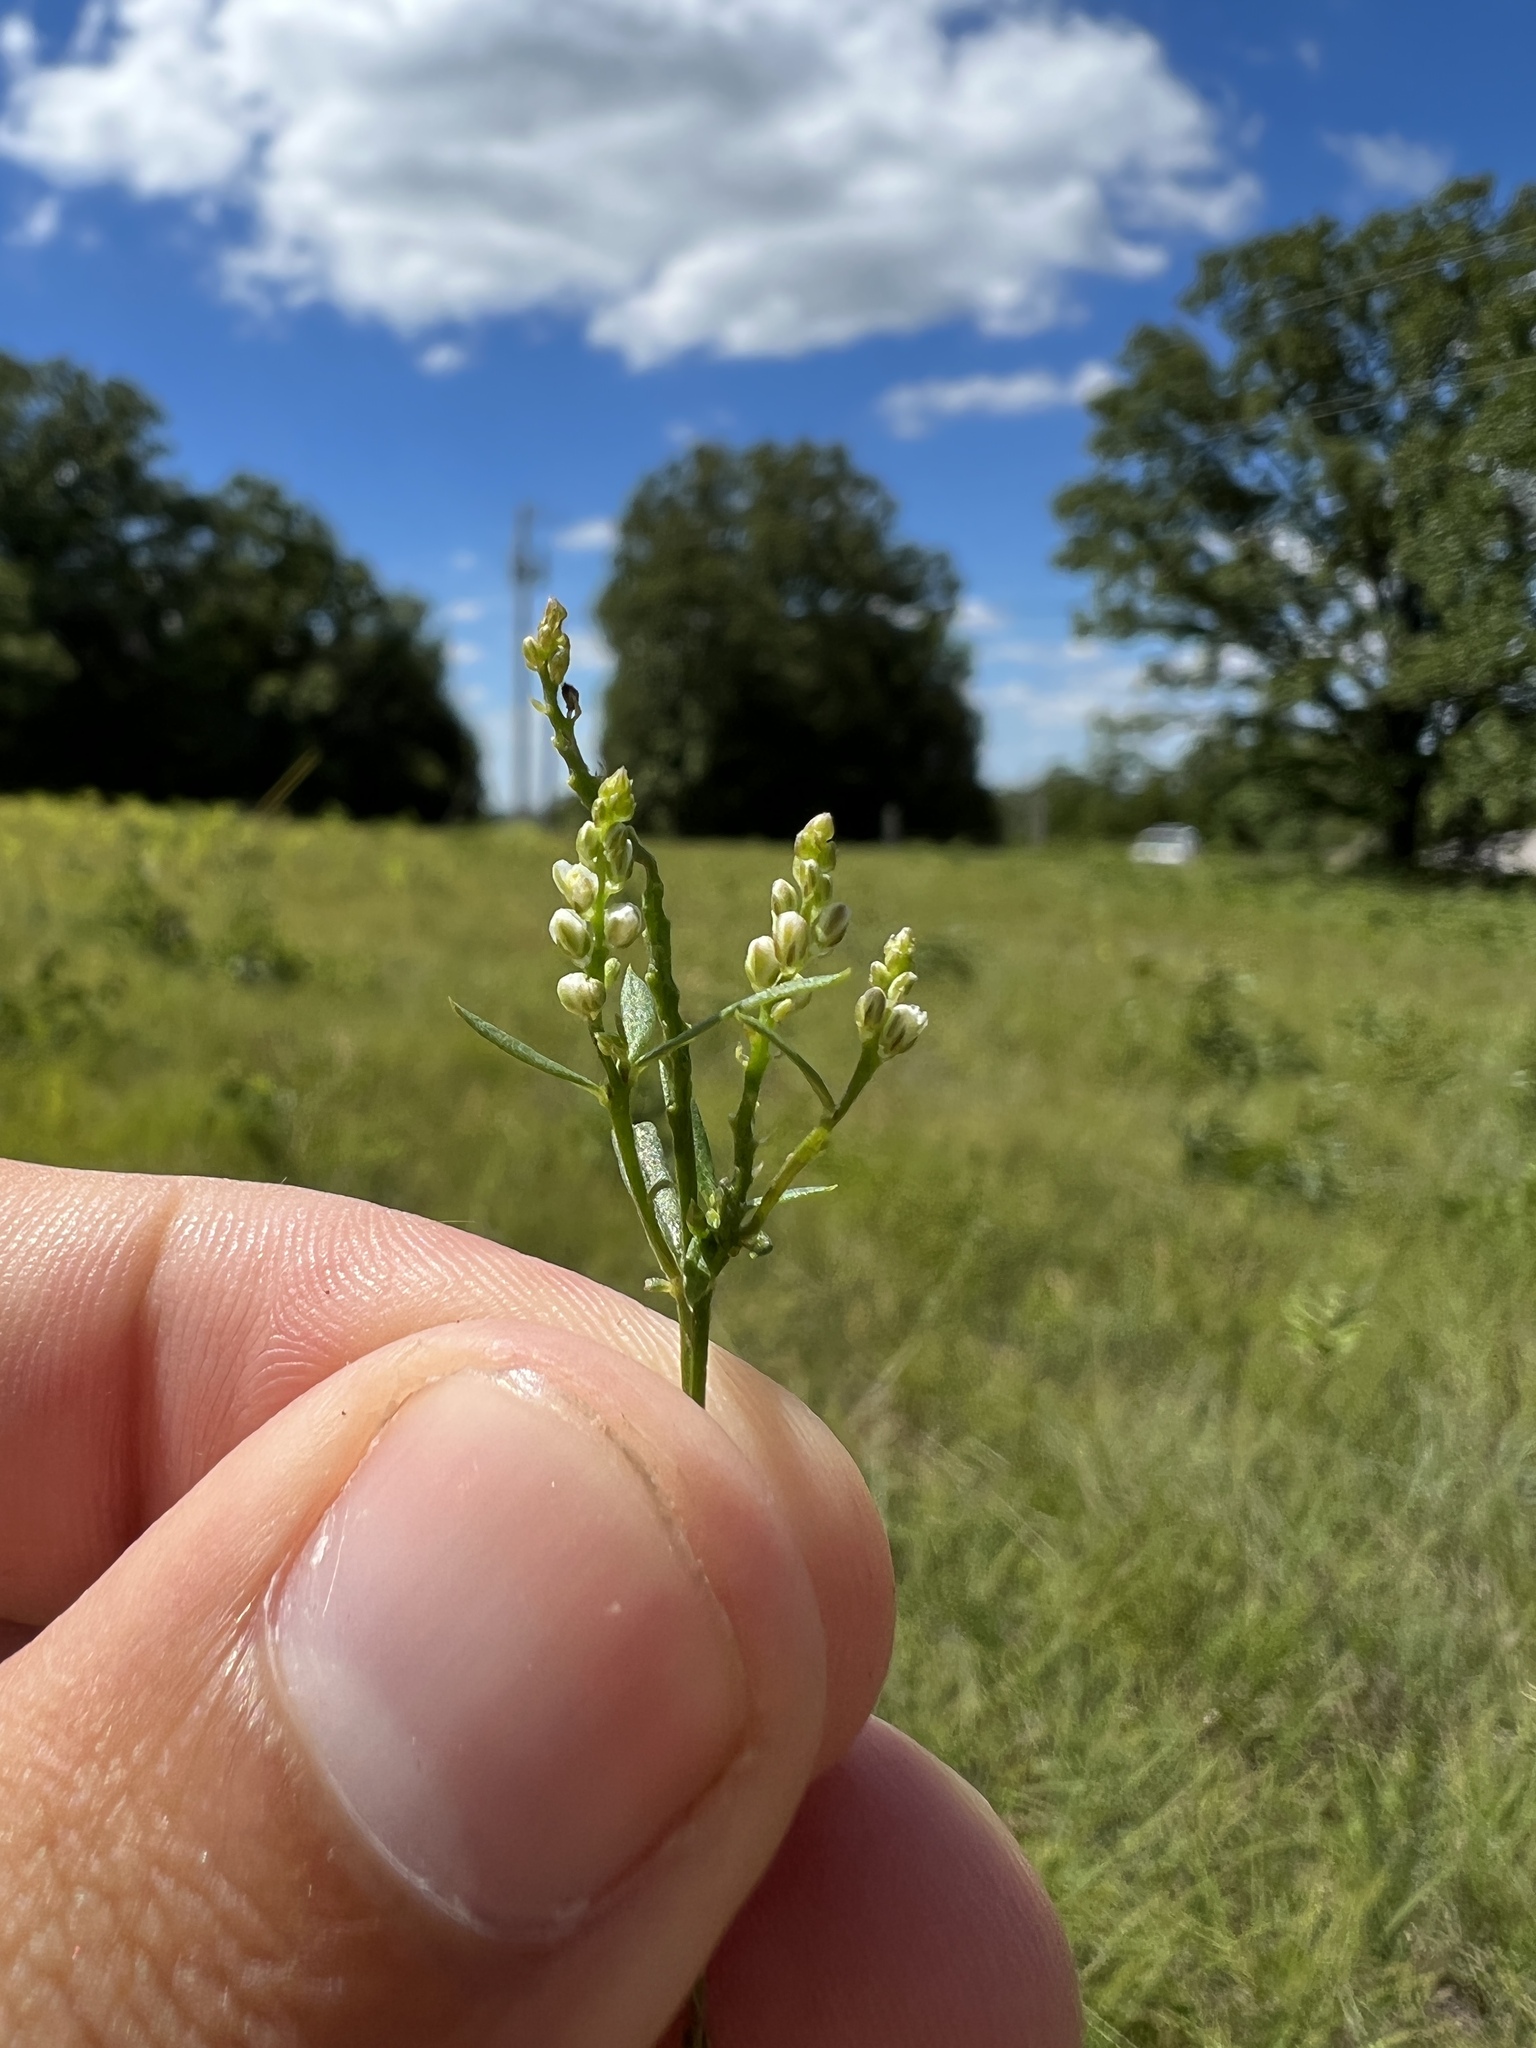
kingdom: Plantae
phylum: Tracheophyta
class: Magnoliopsida
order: Fabales
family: Polygalaceae
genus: Polygala
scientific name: Polygala verticillata
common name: Whorl milkwort
